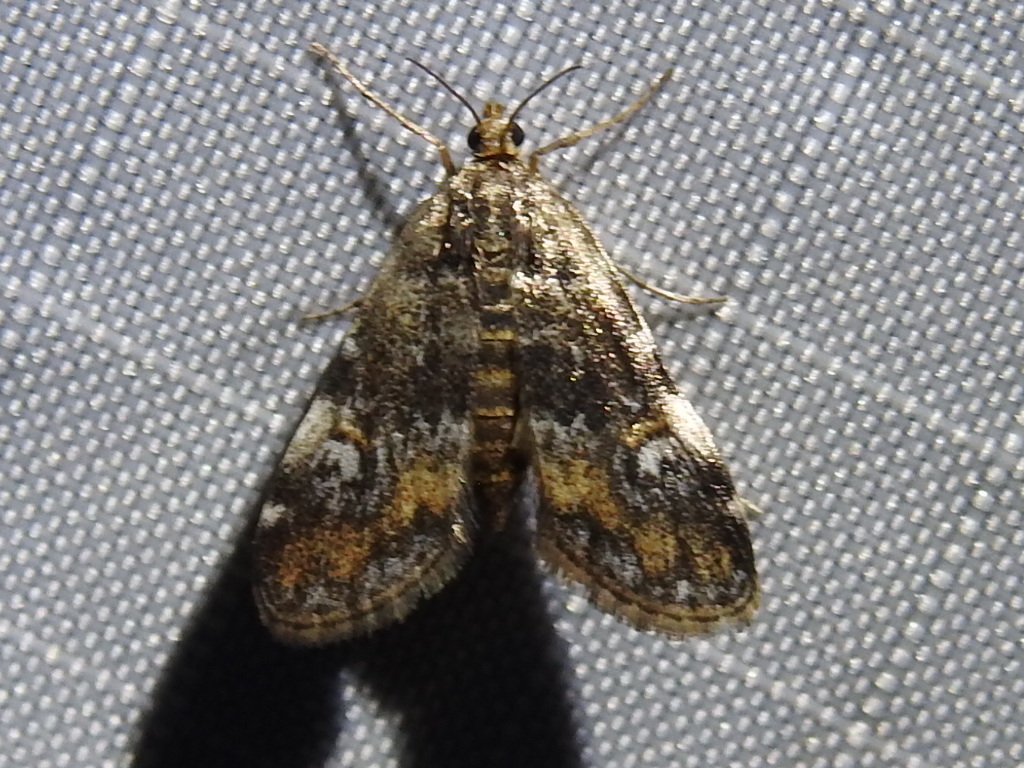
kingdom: Animalia
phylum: Arthropoda
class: Insecta
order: Lepidoptera
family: Crambidae
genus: Elophila
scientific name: Elophila obliteralis
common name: Waterlily leafcutter moth
